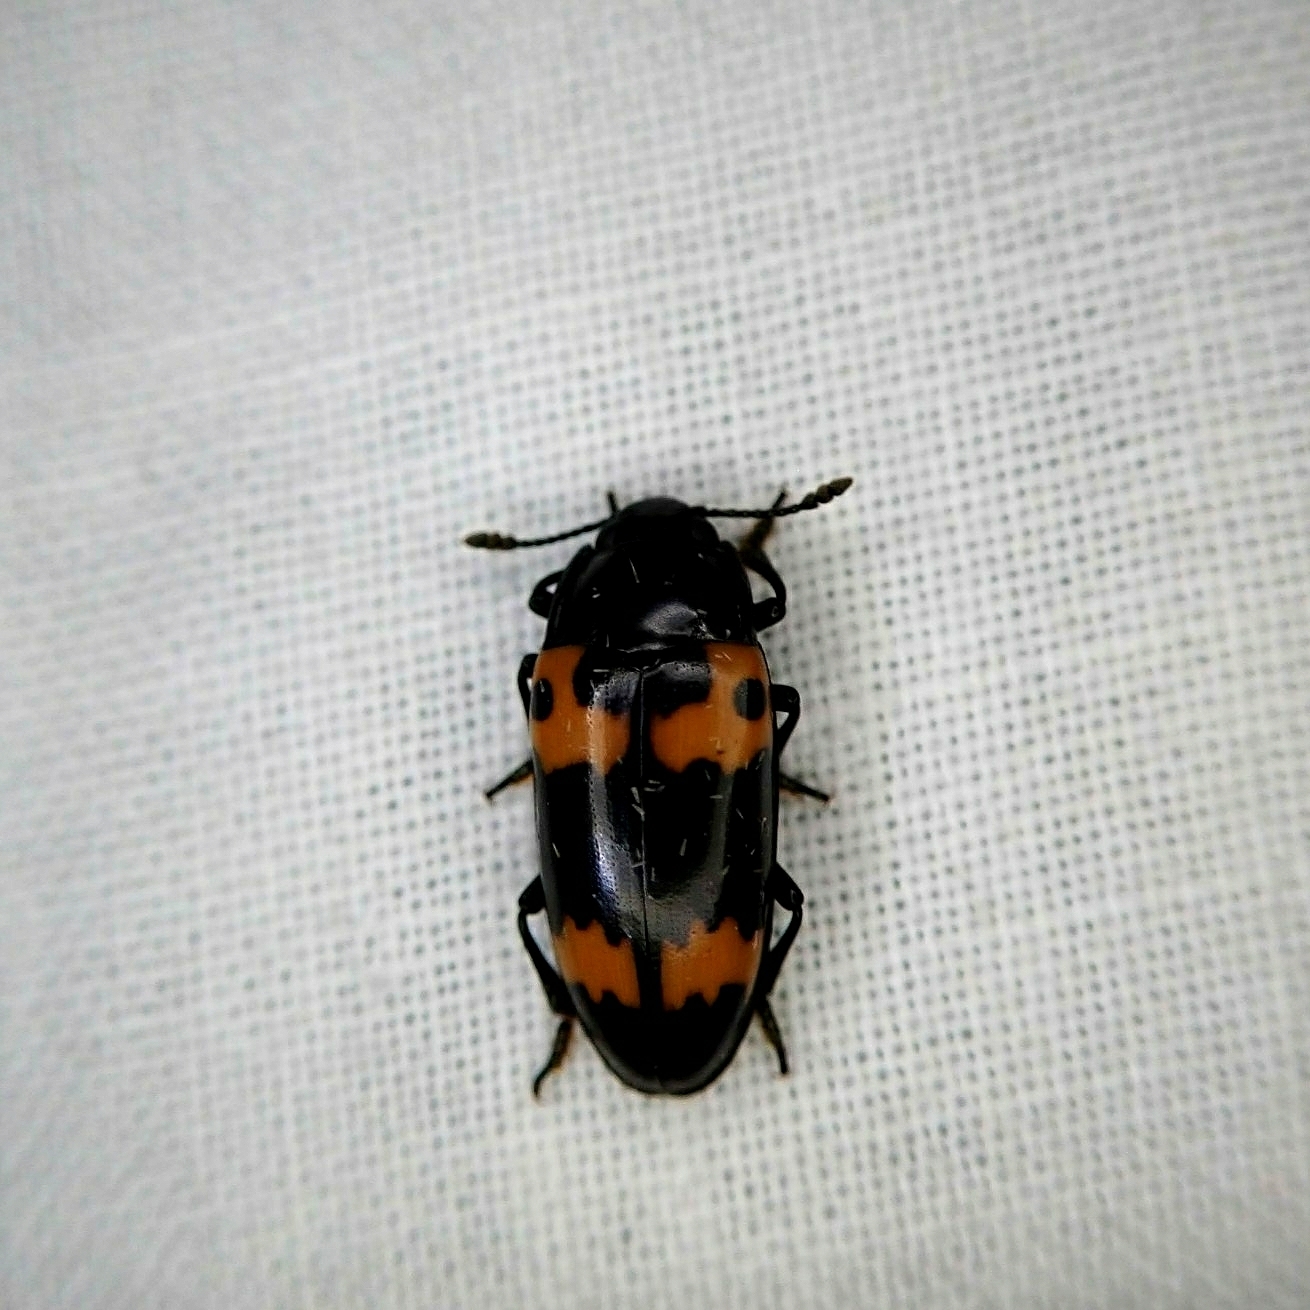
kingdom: Animalia
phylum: Arthropoda
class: Insecta
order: Coleoptera
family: Erotylidae
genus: Megalodacne
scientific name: Megalodacne fasciata
